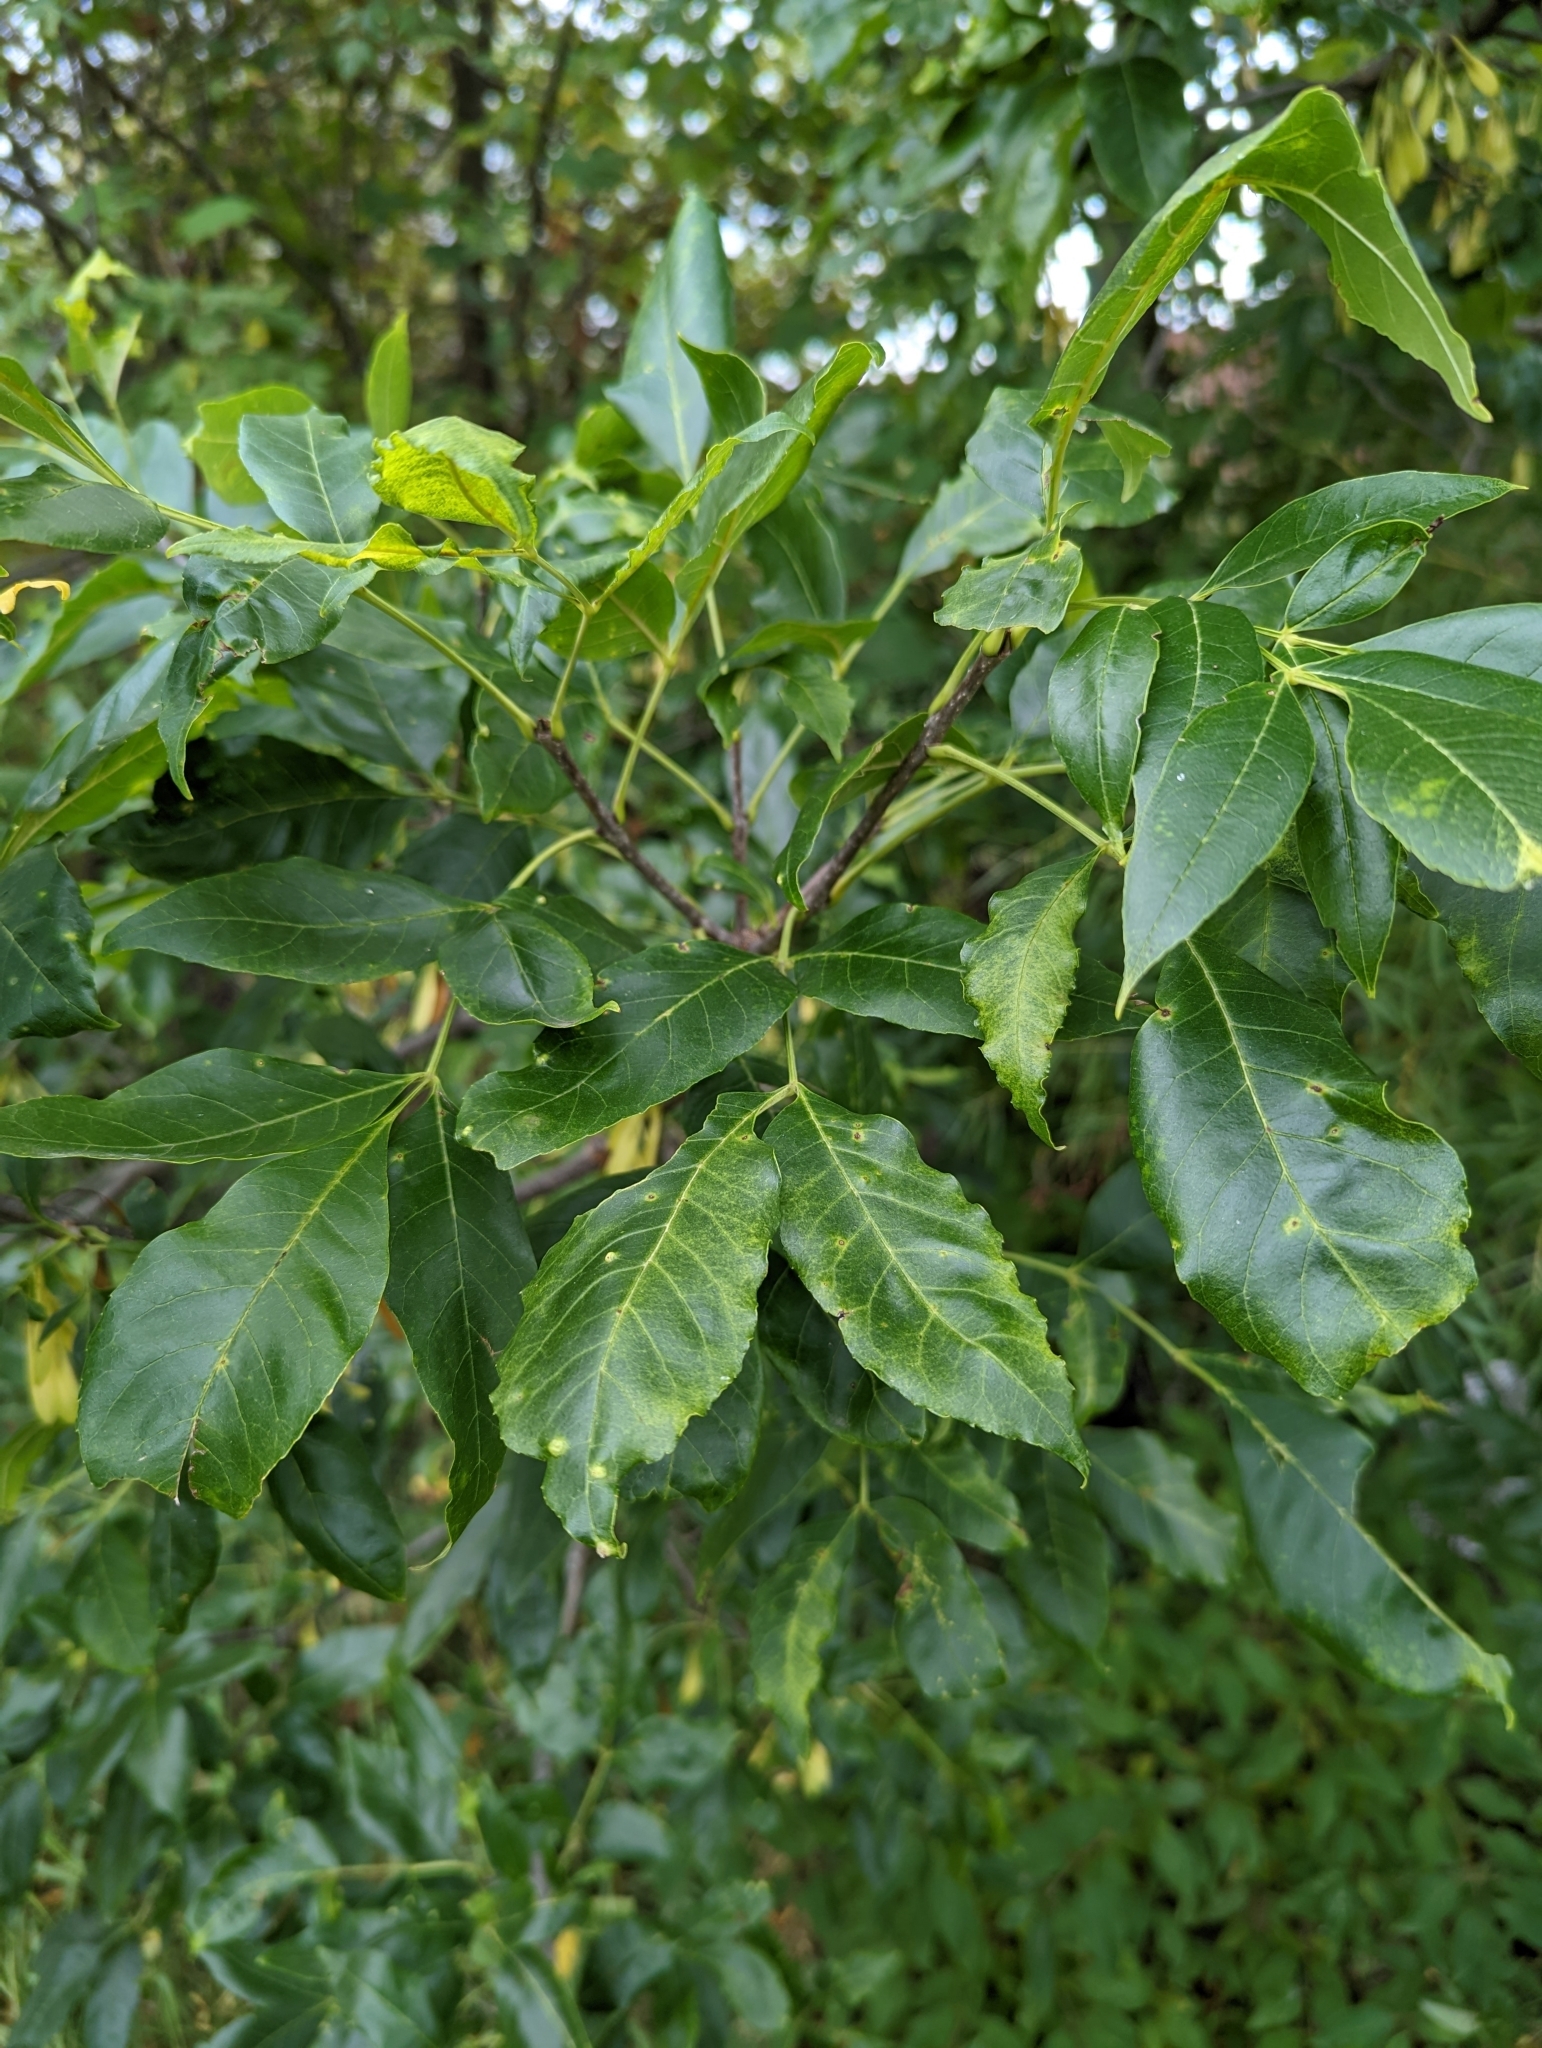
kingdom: Plantae
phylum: Tracheophyta
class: Magnoliopsida
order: Lamiales
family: Oleaceae
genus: Fraxinus
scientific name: Fraxinus pennsylvanica
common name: Green ash
